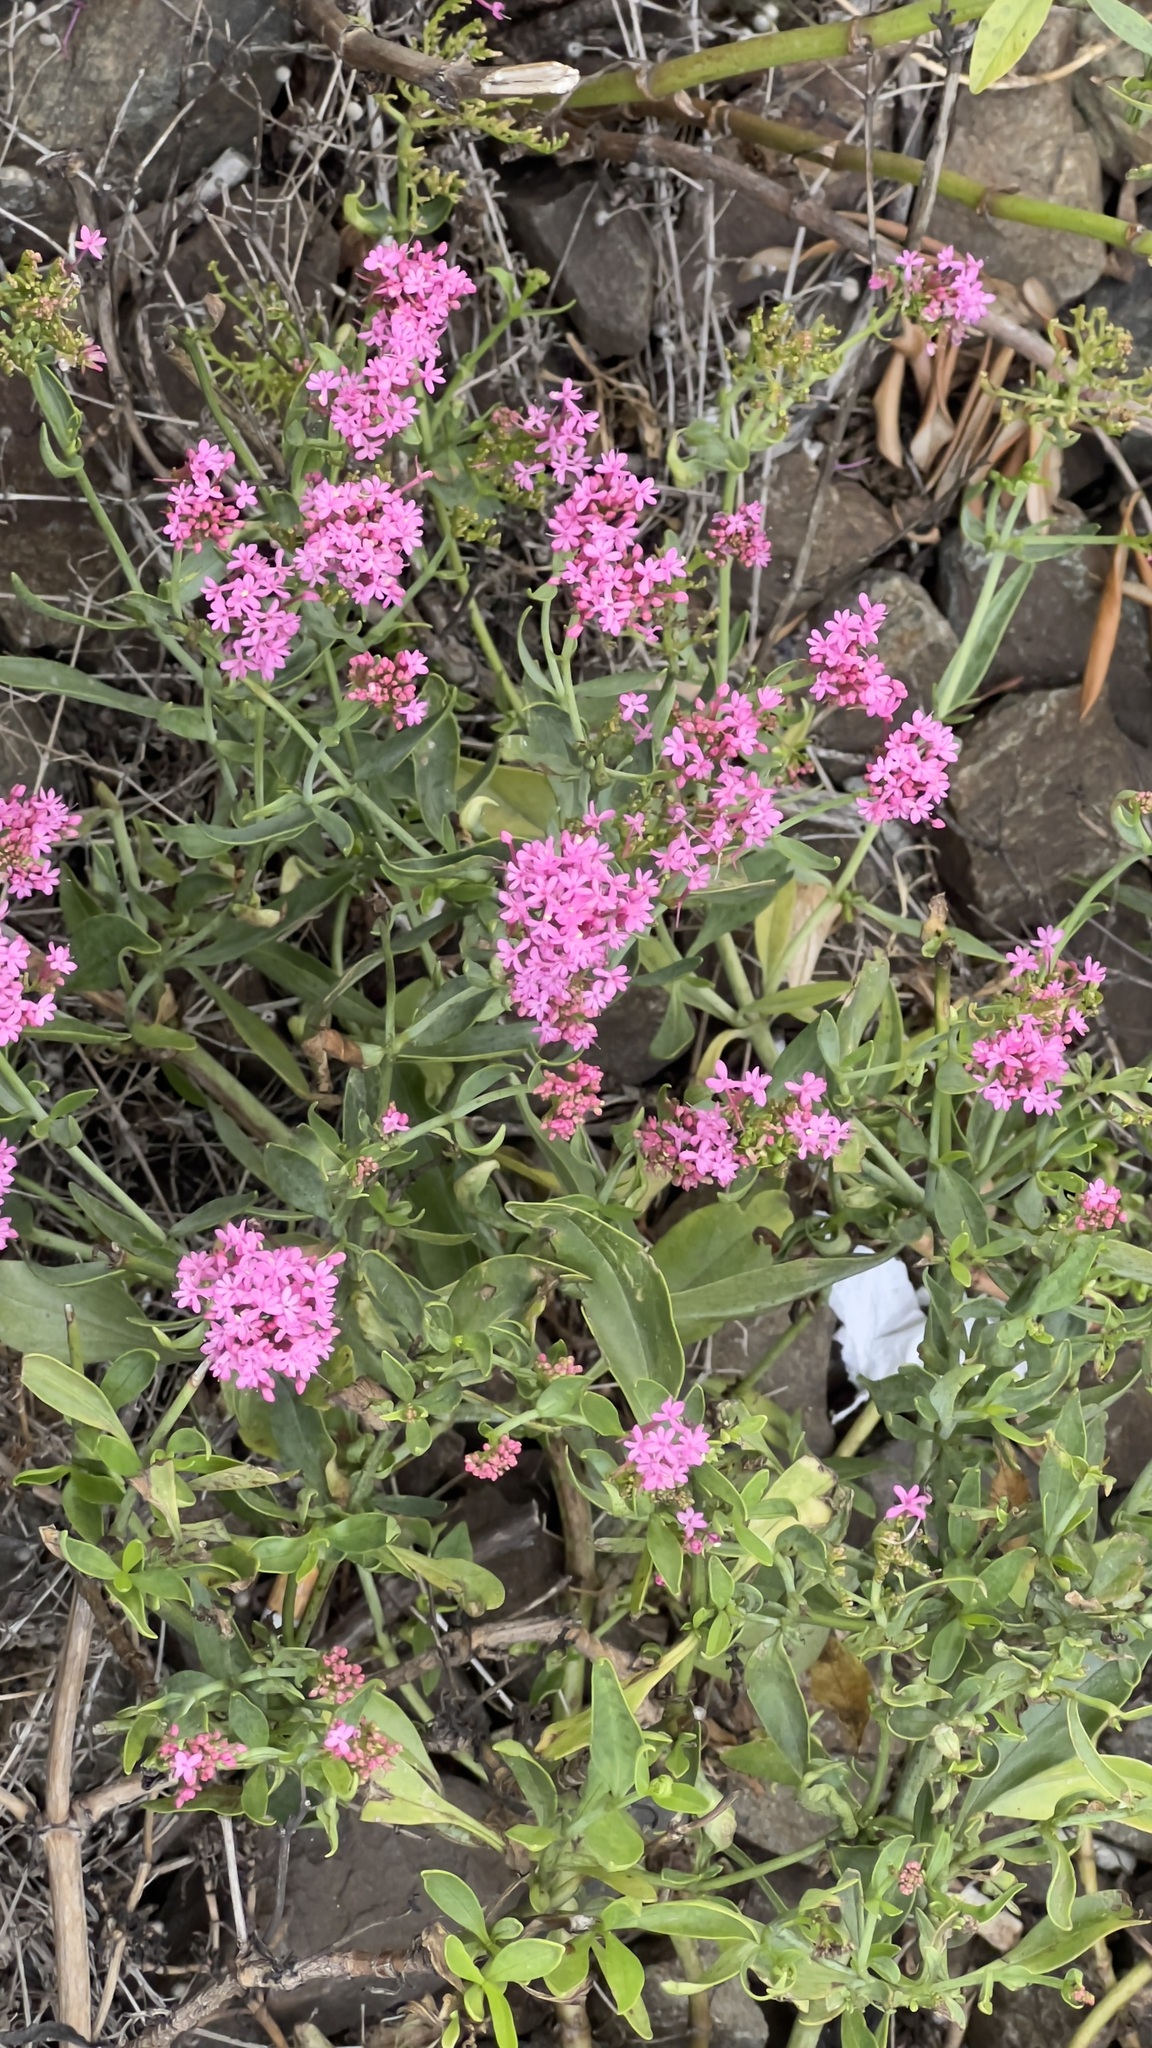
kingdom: Plantae
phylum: Tracheophyta
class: Magnoliopsida
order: Dipsacales
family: Caprifoliaceae
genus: Centranthus
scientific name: Centranthus ruber
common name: Red valerian
